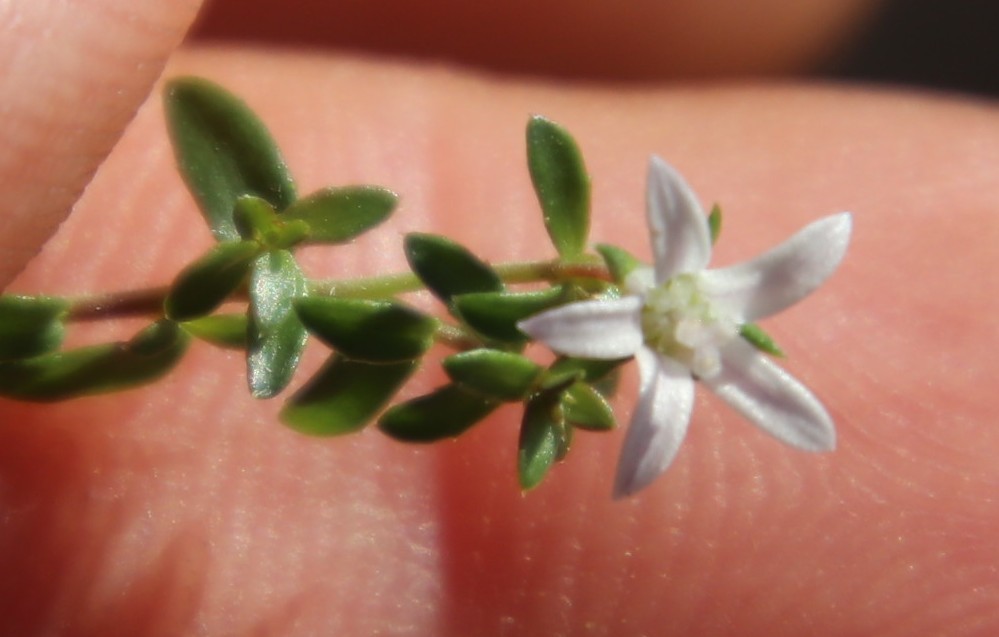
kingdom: Plantae
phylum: Tracheophyta
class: Magnoliopsida
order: Asterales
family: Campanulaceae
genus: Wahlenbergia
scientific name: Wahlenbergia parvifolia
